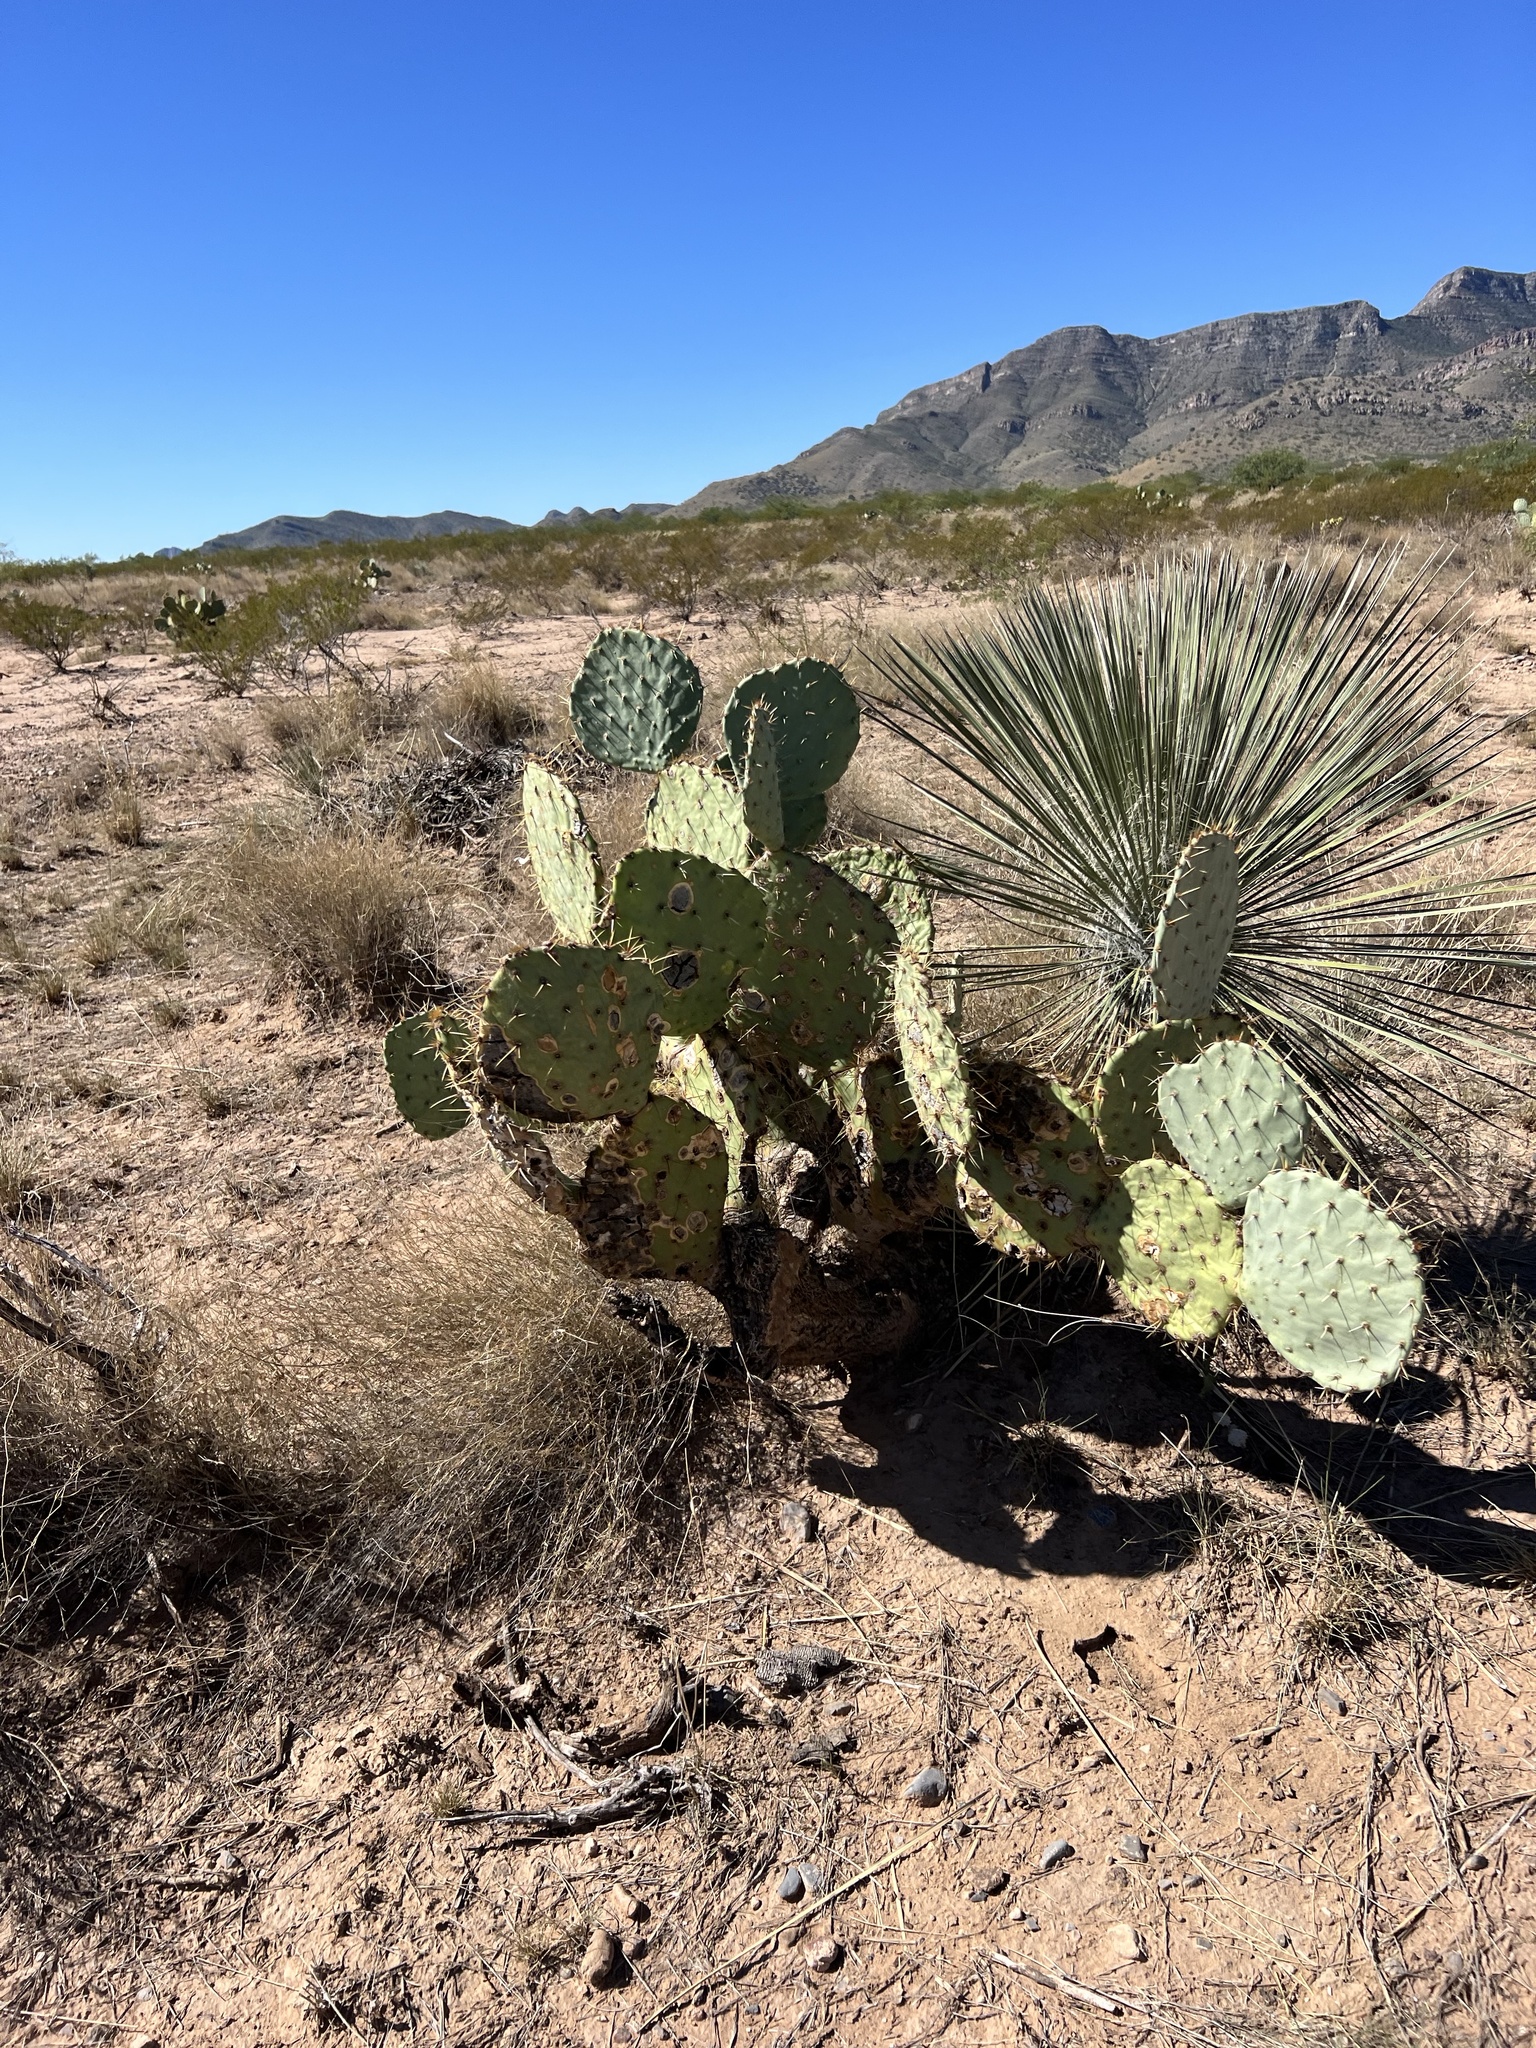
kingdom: Plantae
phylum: Tracheophyta
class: Magnoliopsida
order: Caryophyllales
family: Cactaceae
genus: Opuntia
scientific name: Opuntia engelmannii
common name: Cactus-apple
